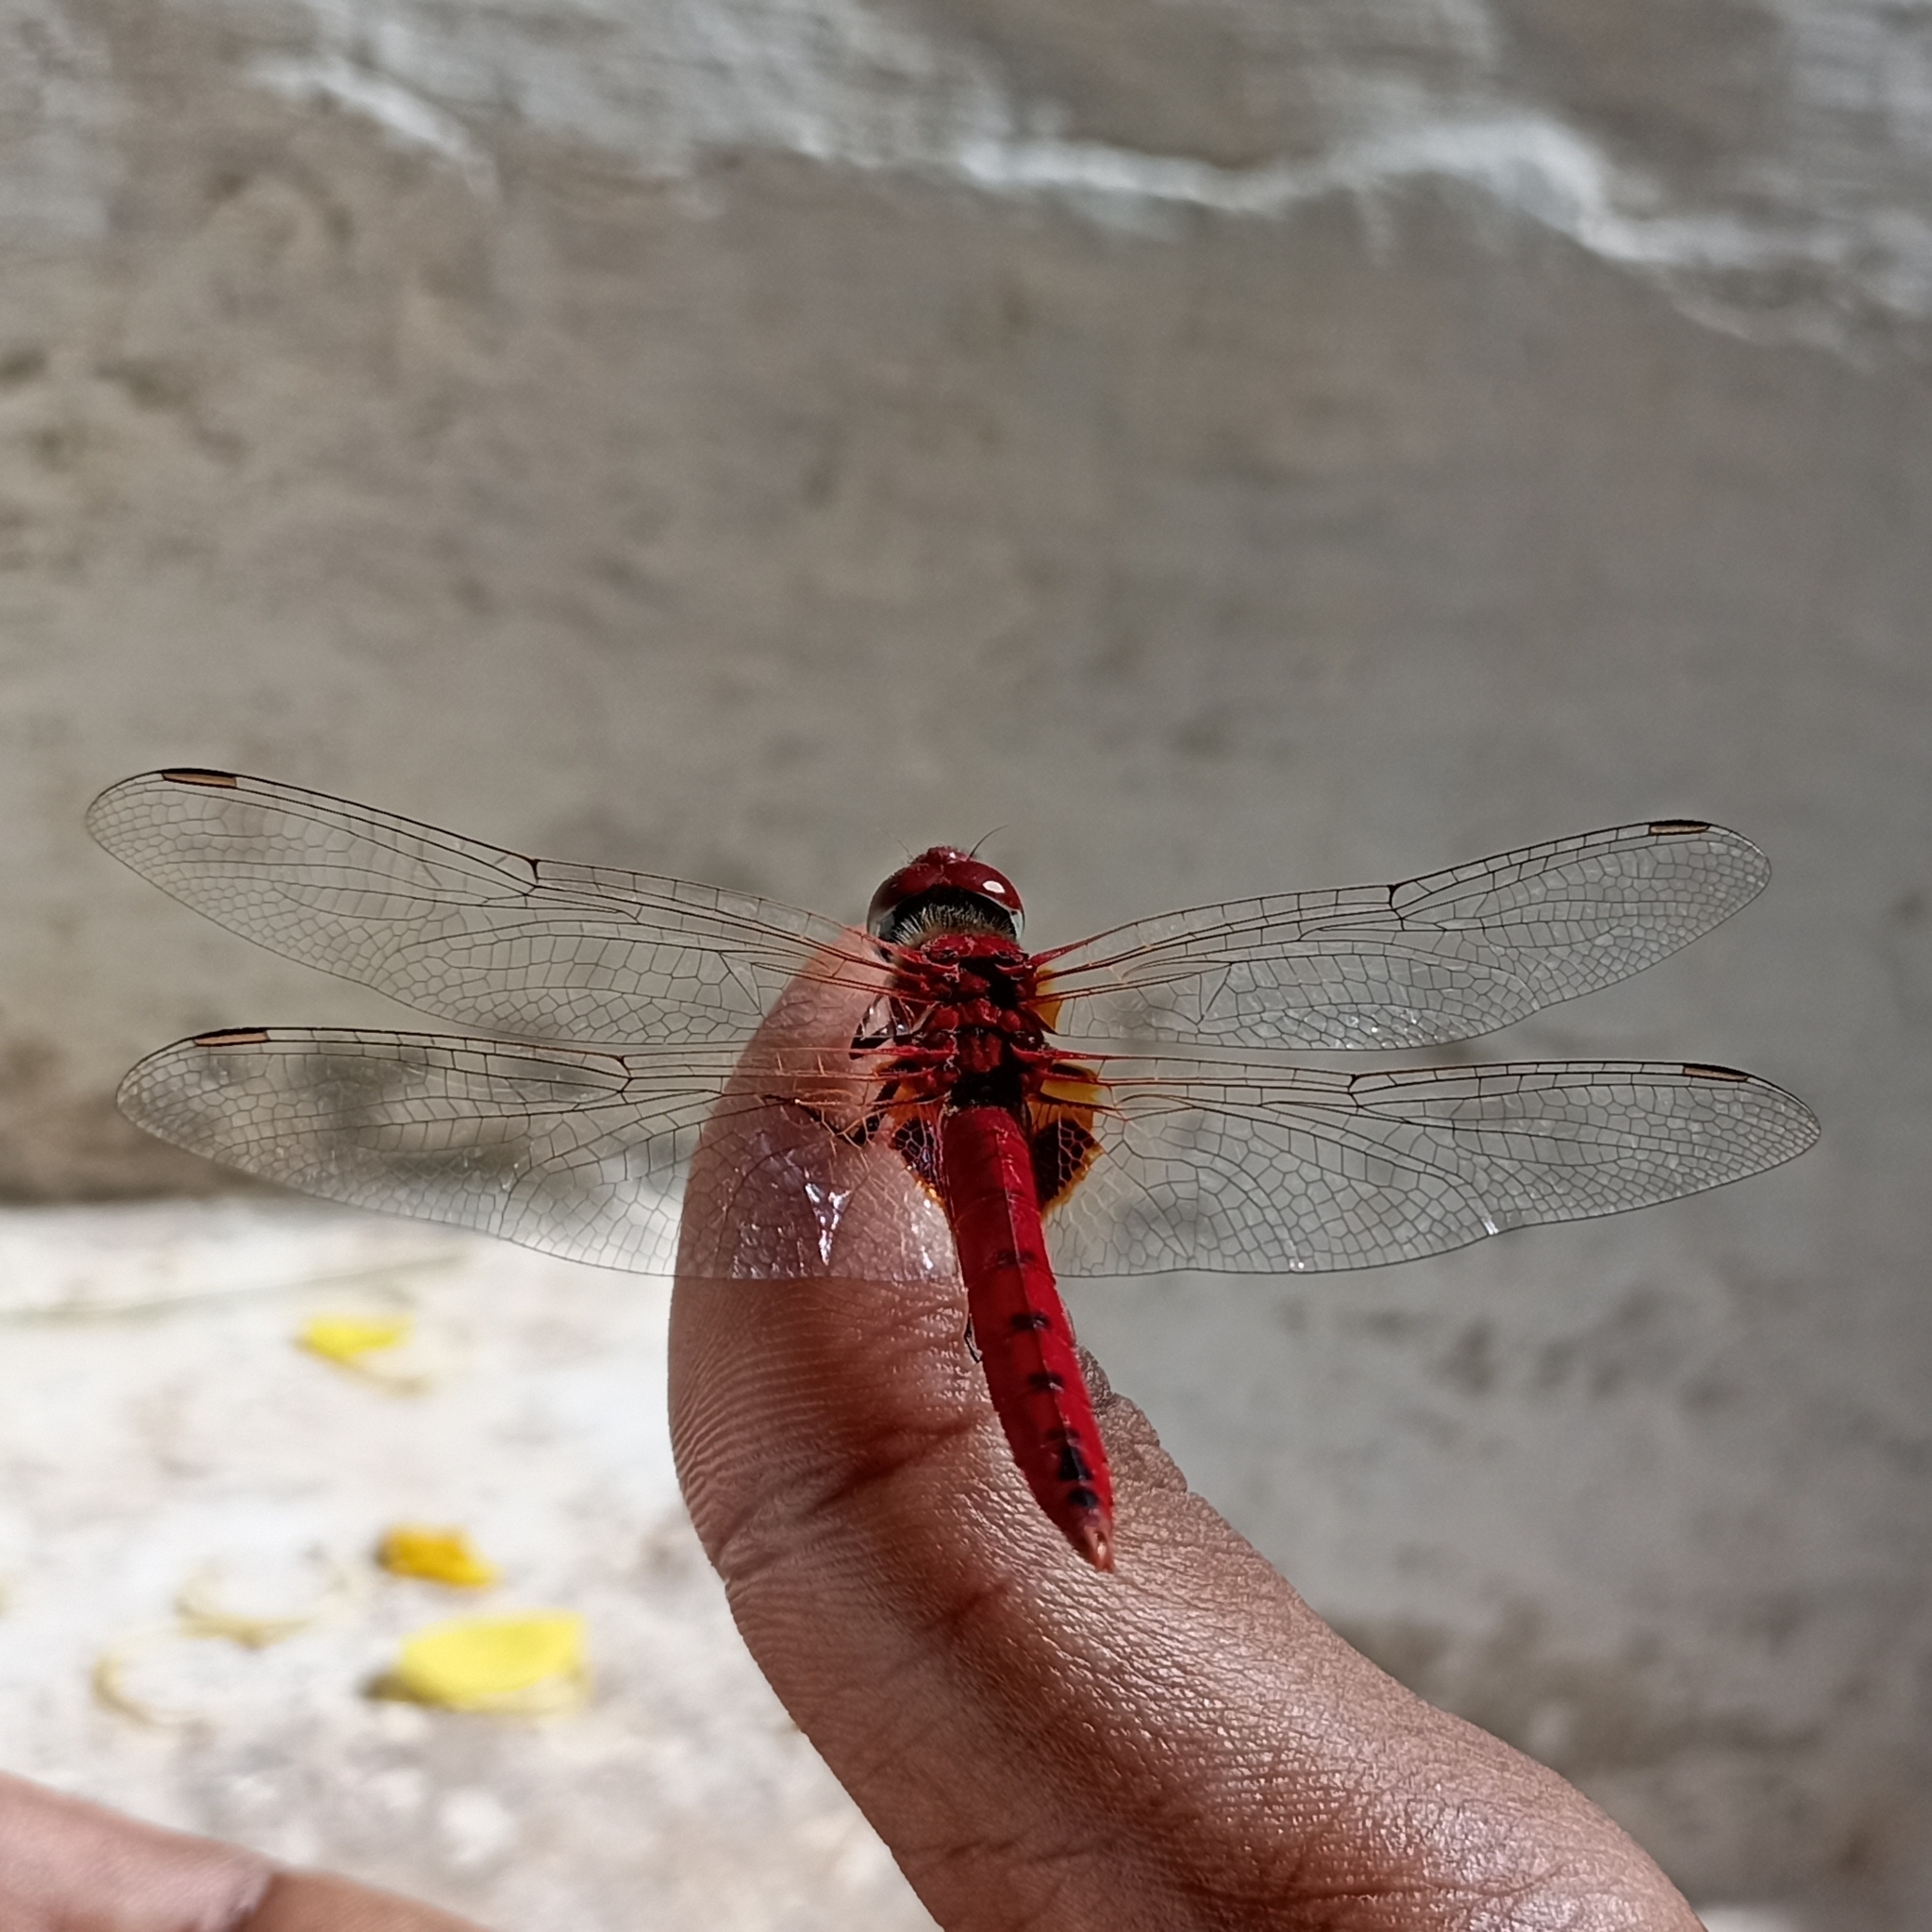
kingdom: Animalia
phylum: Arthropoda
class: Insecta
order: Odonata
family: Libellulidae
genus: Urothemis
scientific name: Urothemis signata
